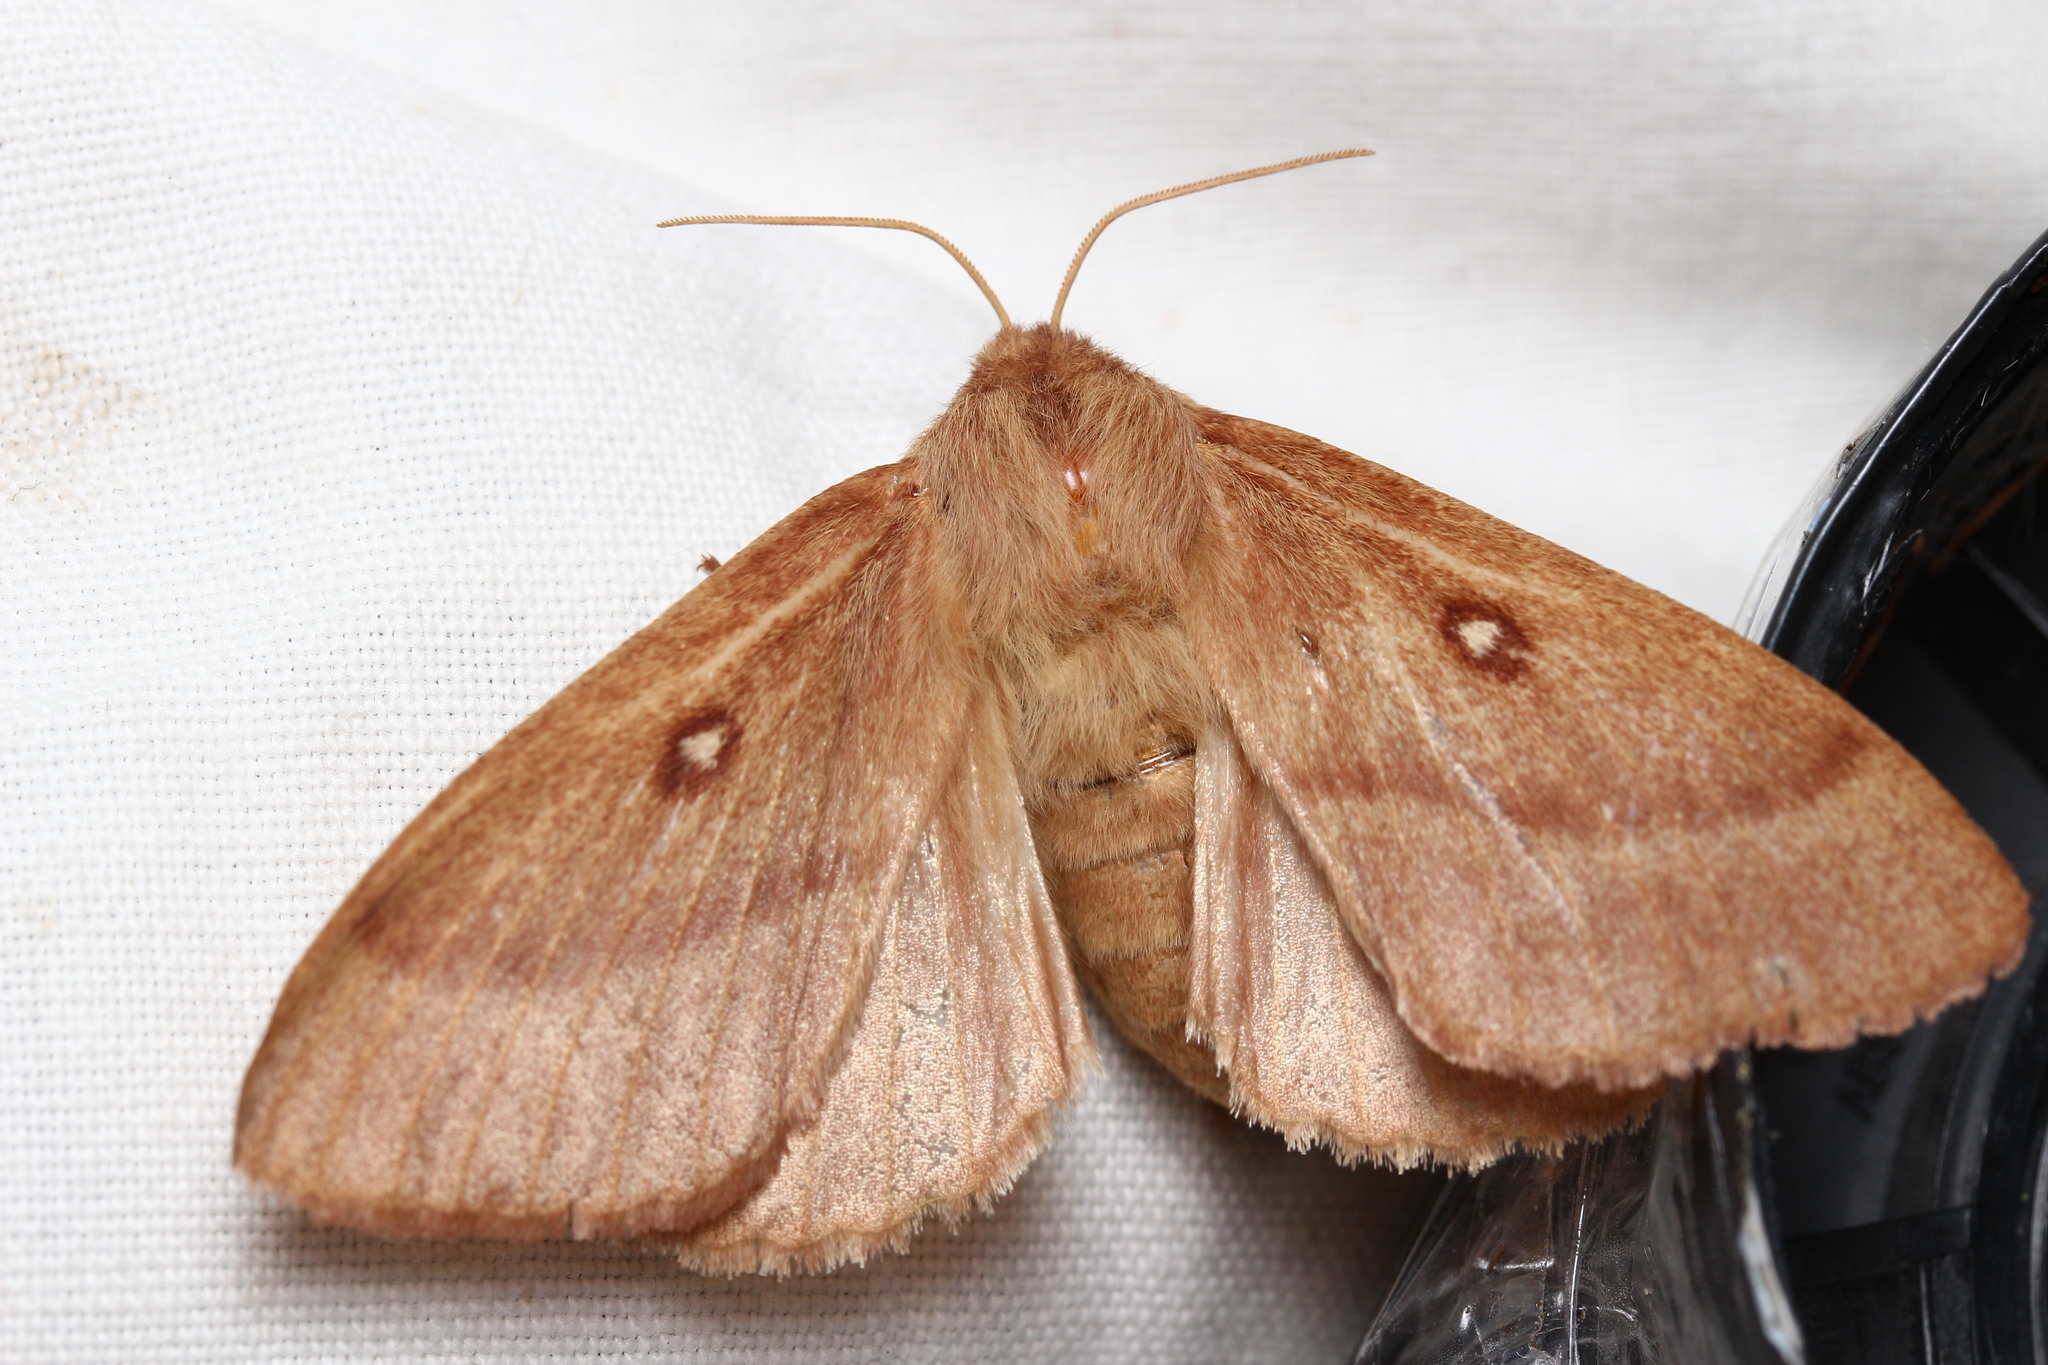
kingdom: Animalia
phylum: Arthropoda
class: Insecta
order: Lepidoptera
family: Lasiocampidae
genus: Lasiocampa
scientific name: Lasiocampa trifolii
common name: Grass eggar
